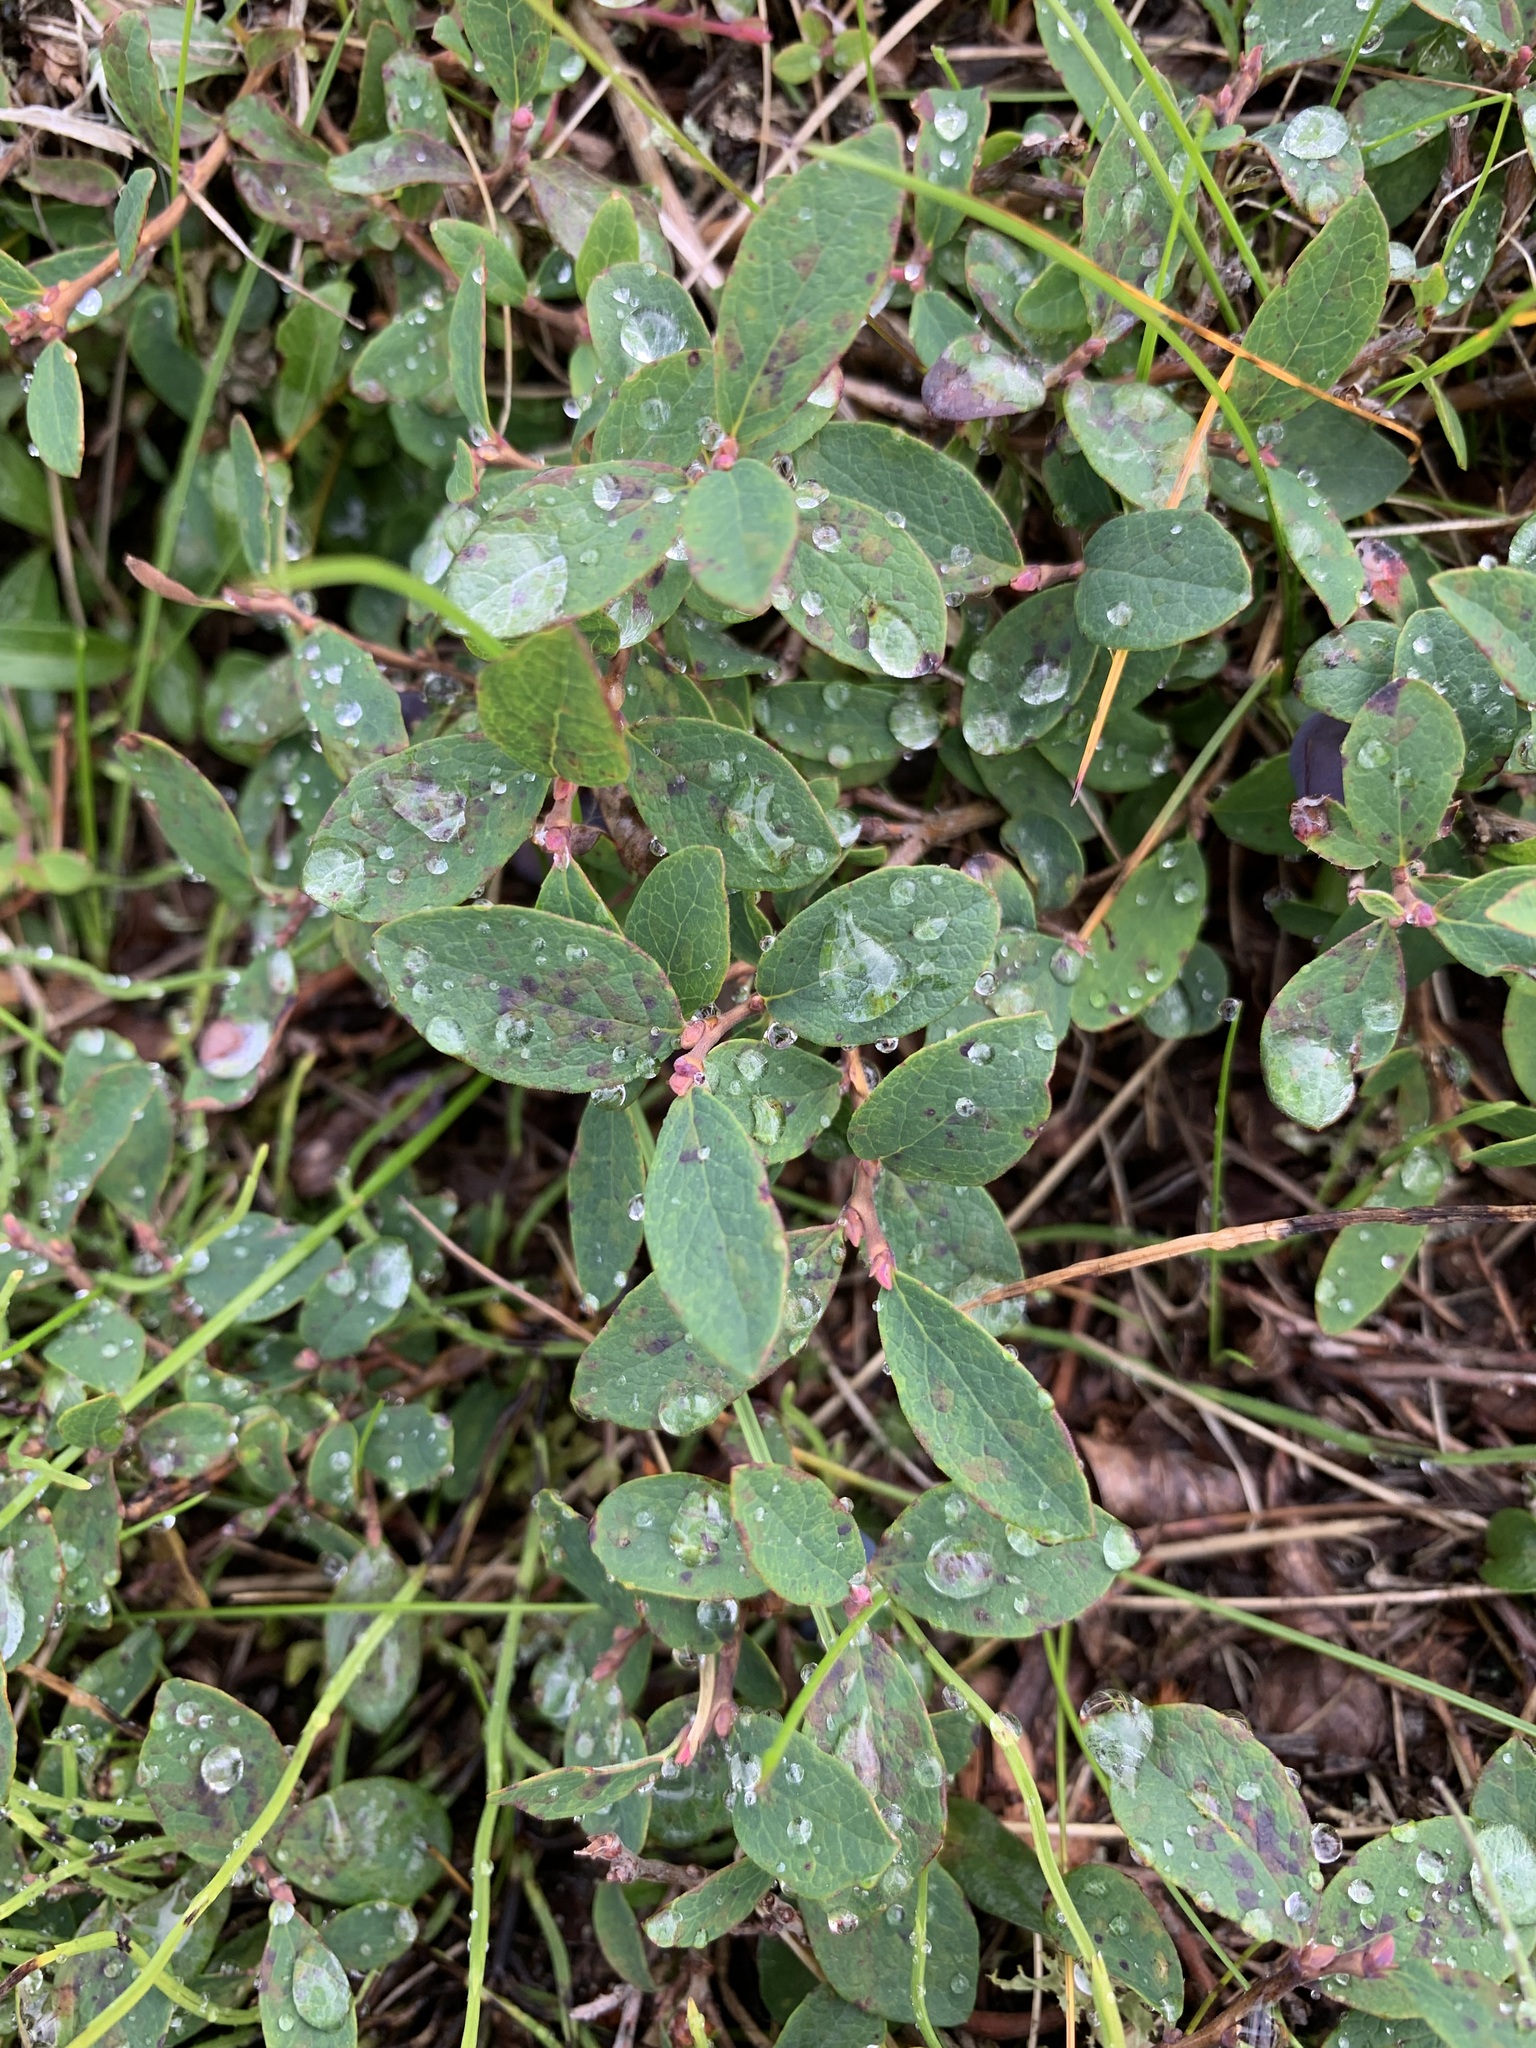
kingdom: Plantae
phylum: Tracheophyta
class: Magnoliopsida
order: Ericales
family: Ericaceae
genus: Vaccinium
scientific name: Vaccinium uliginosum
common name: Bog bilberry
